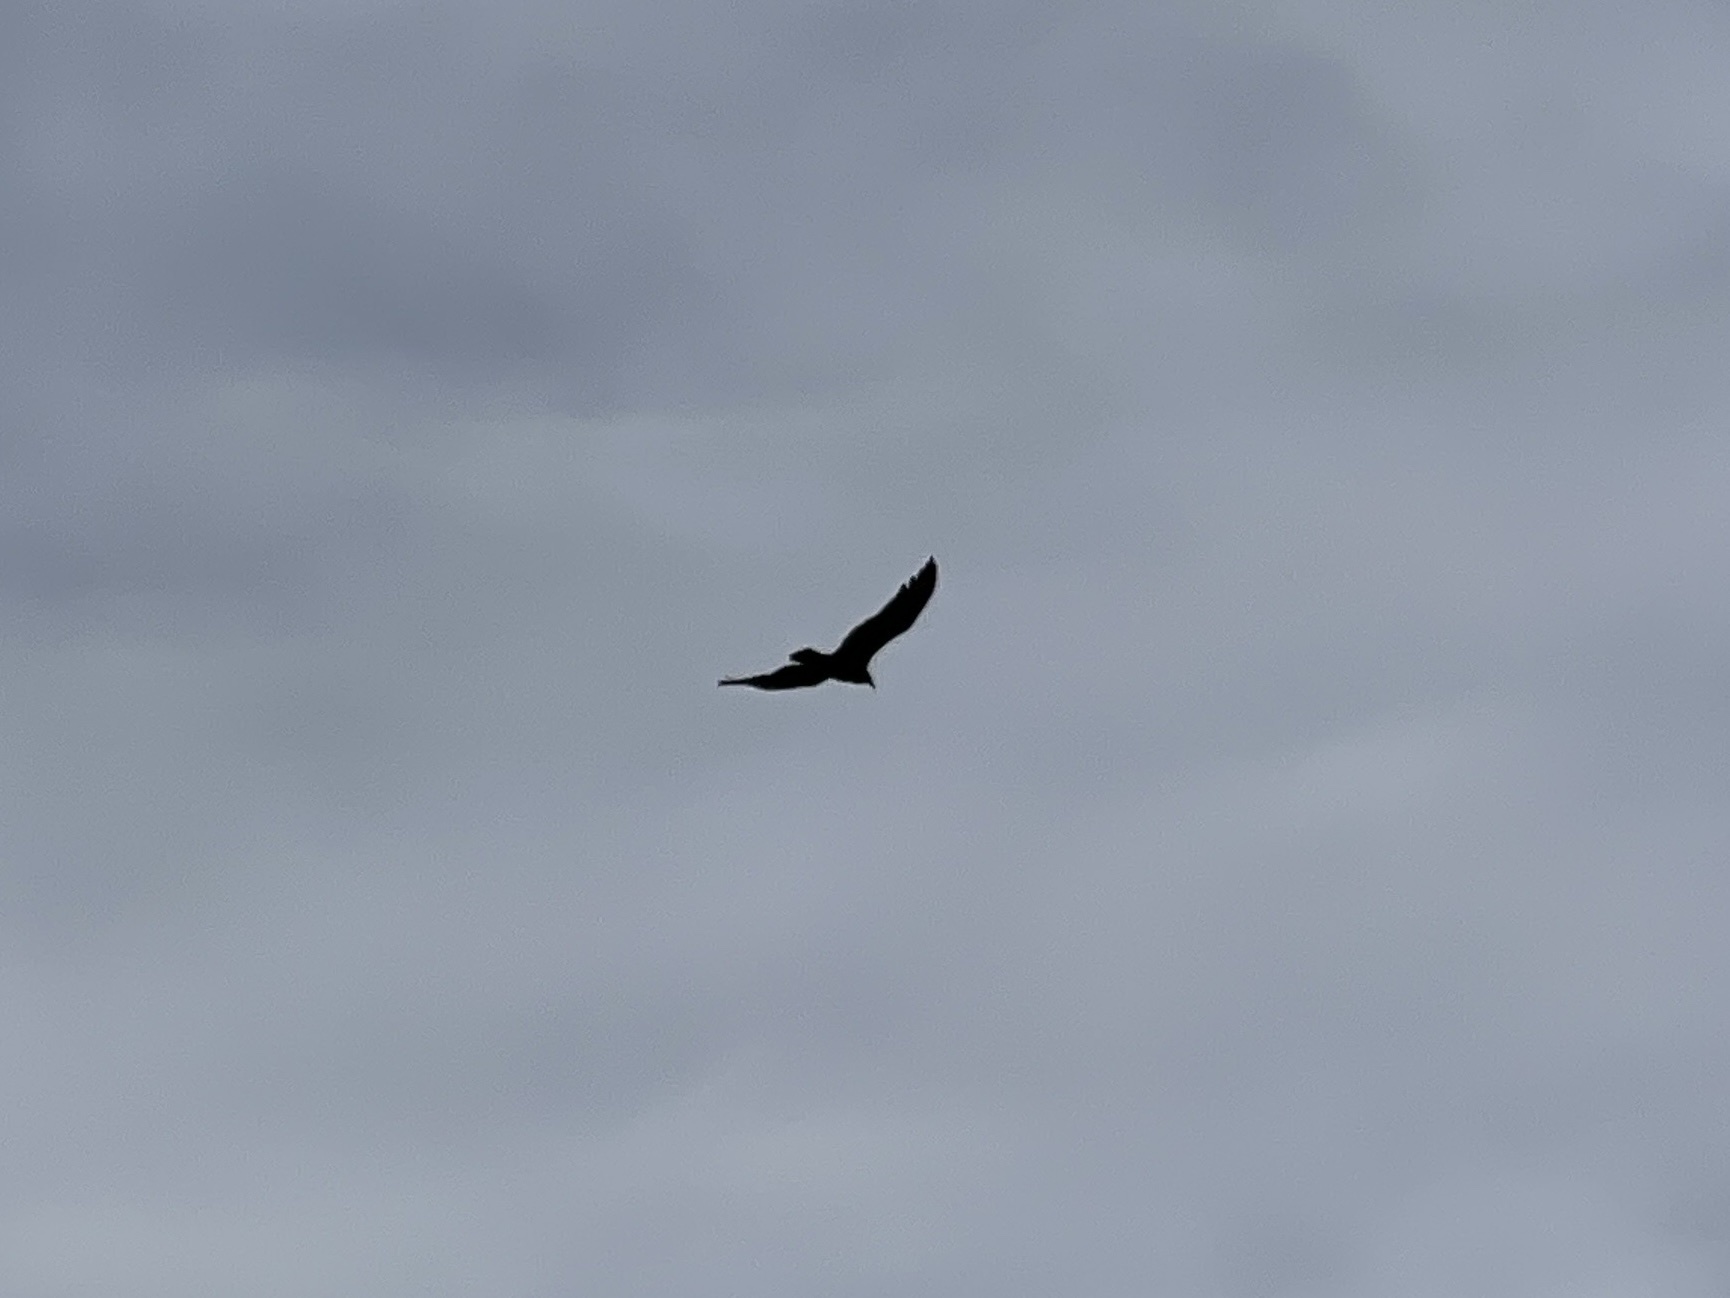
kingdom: Animalia
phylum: Chordata
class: Aves
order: Accipitriformes
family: Cathartidae
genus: Cathartes
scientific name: Cathartes aura
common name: Turkey vulture
